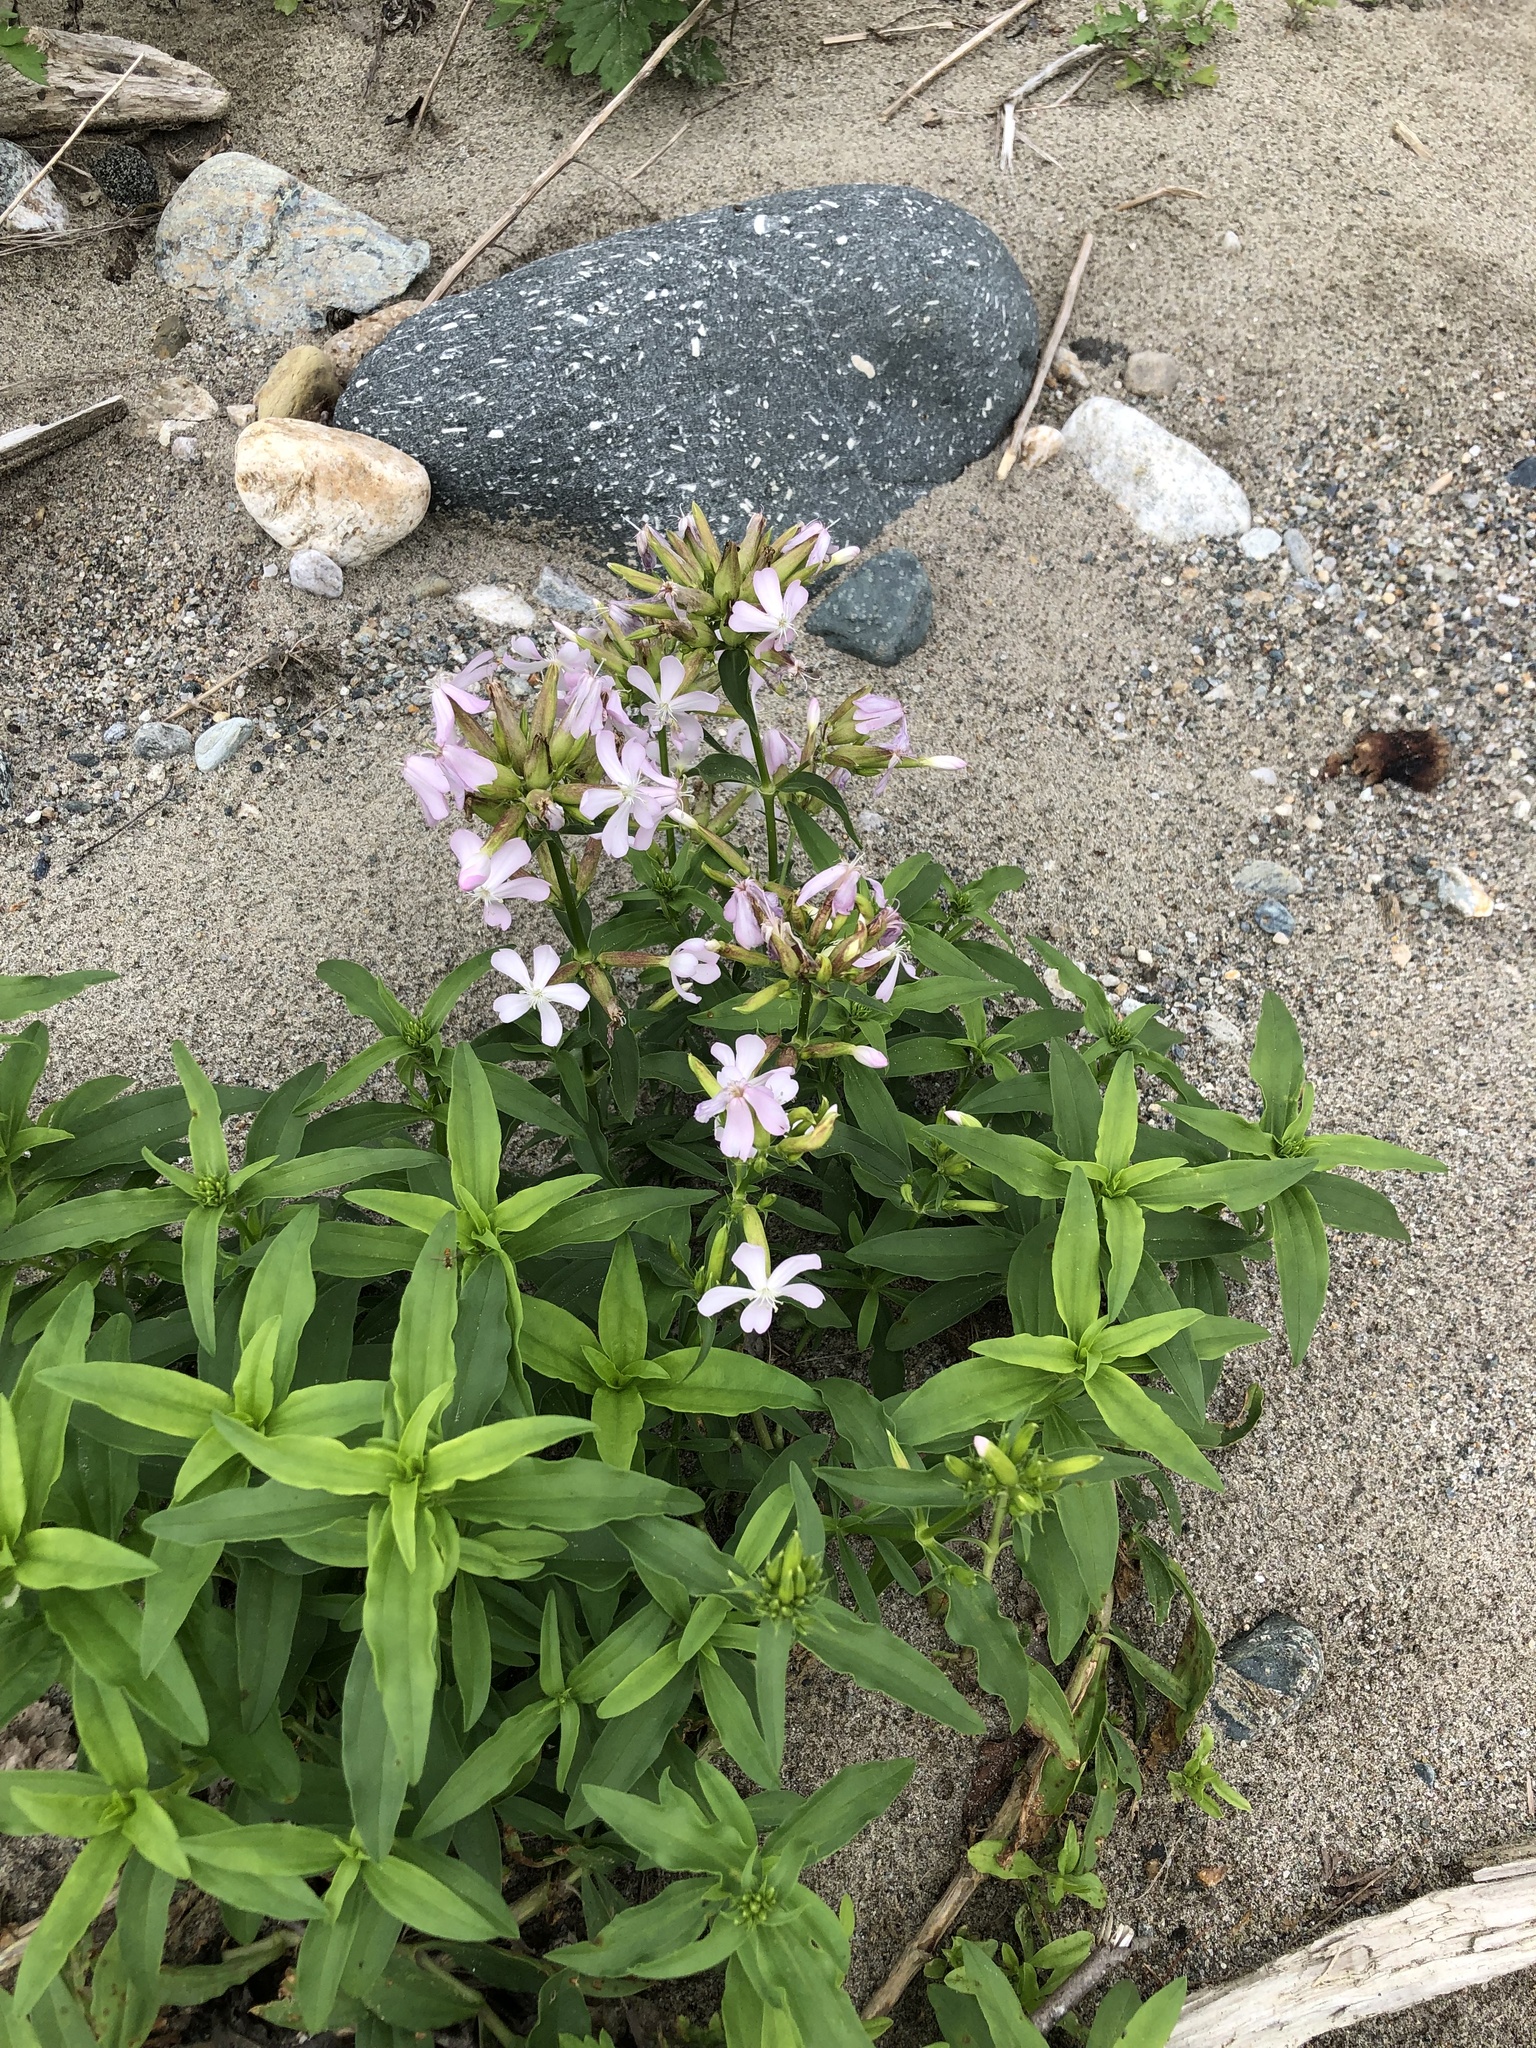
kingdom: Plantae
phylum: Tracheophyta
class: Magnoliopsida
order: Caryophyllales
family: Caryophyllaceae
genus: Saponaria
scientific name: Saponaria officinalis
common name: Soapwort
